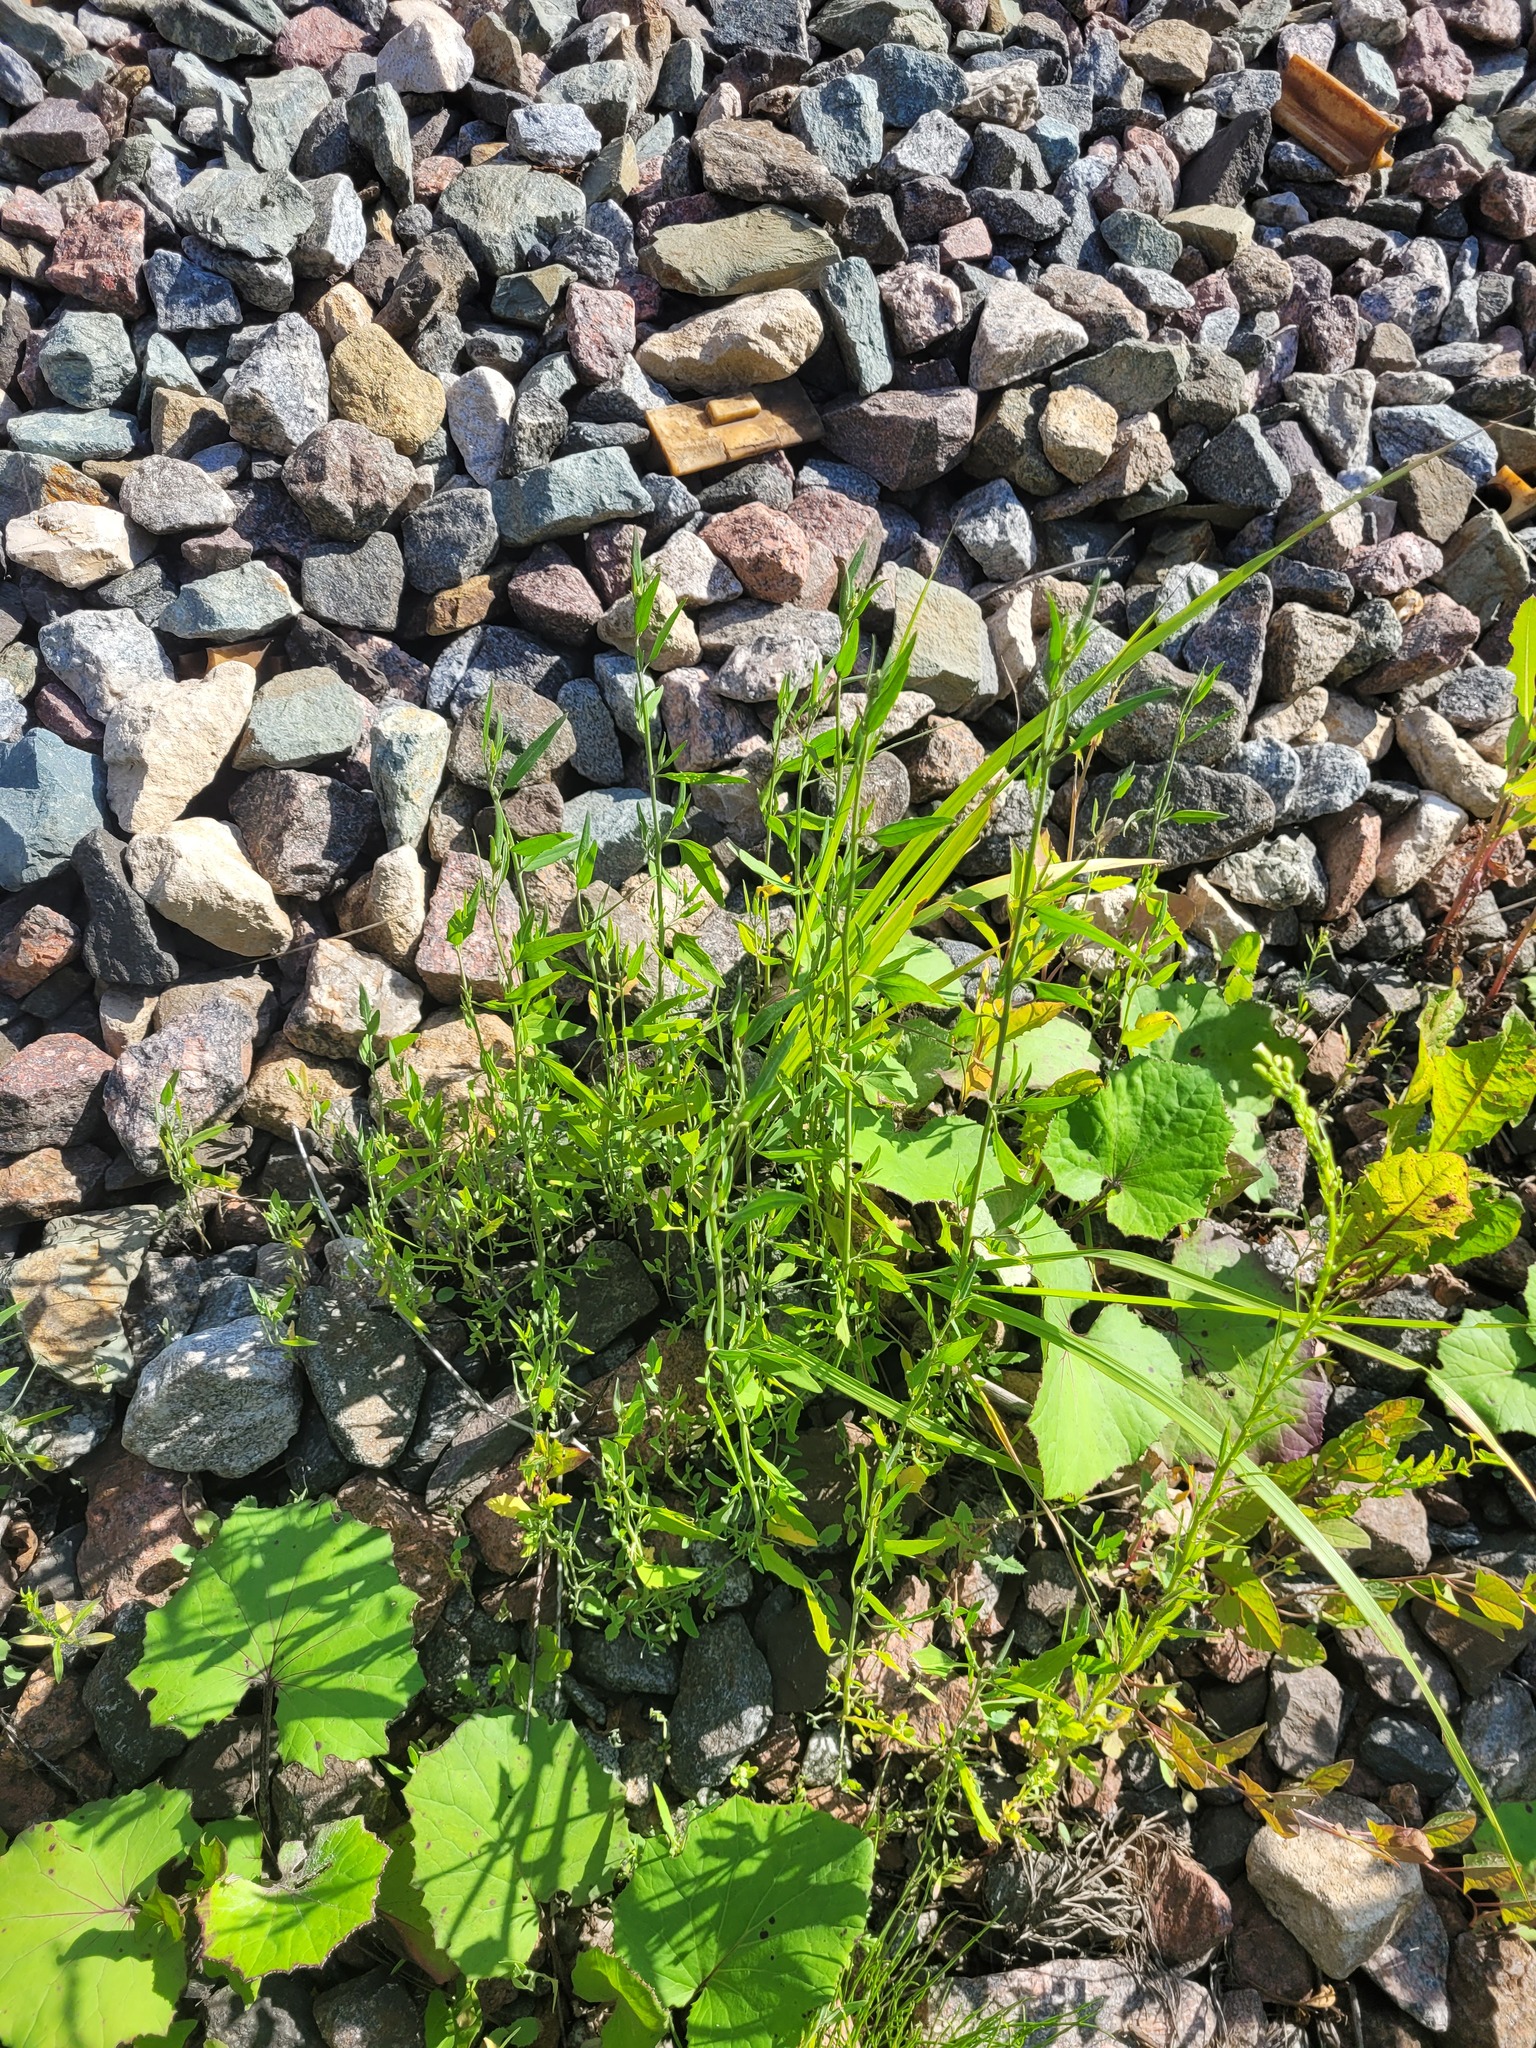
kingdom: Plantae
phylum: Tracheophyta
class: Magnoliopsida
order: Caryophyllales
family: Amaranthaceae
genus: Atriplex
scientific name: Atriplex patula
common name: Common orache
